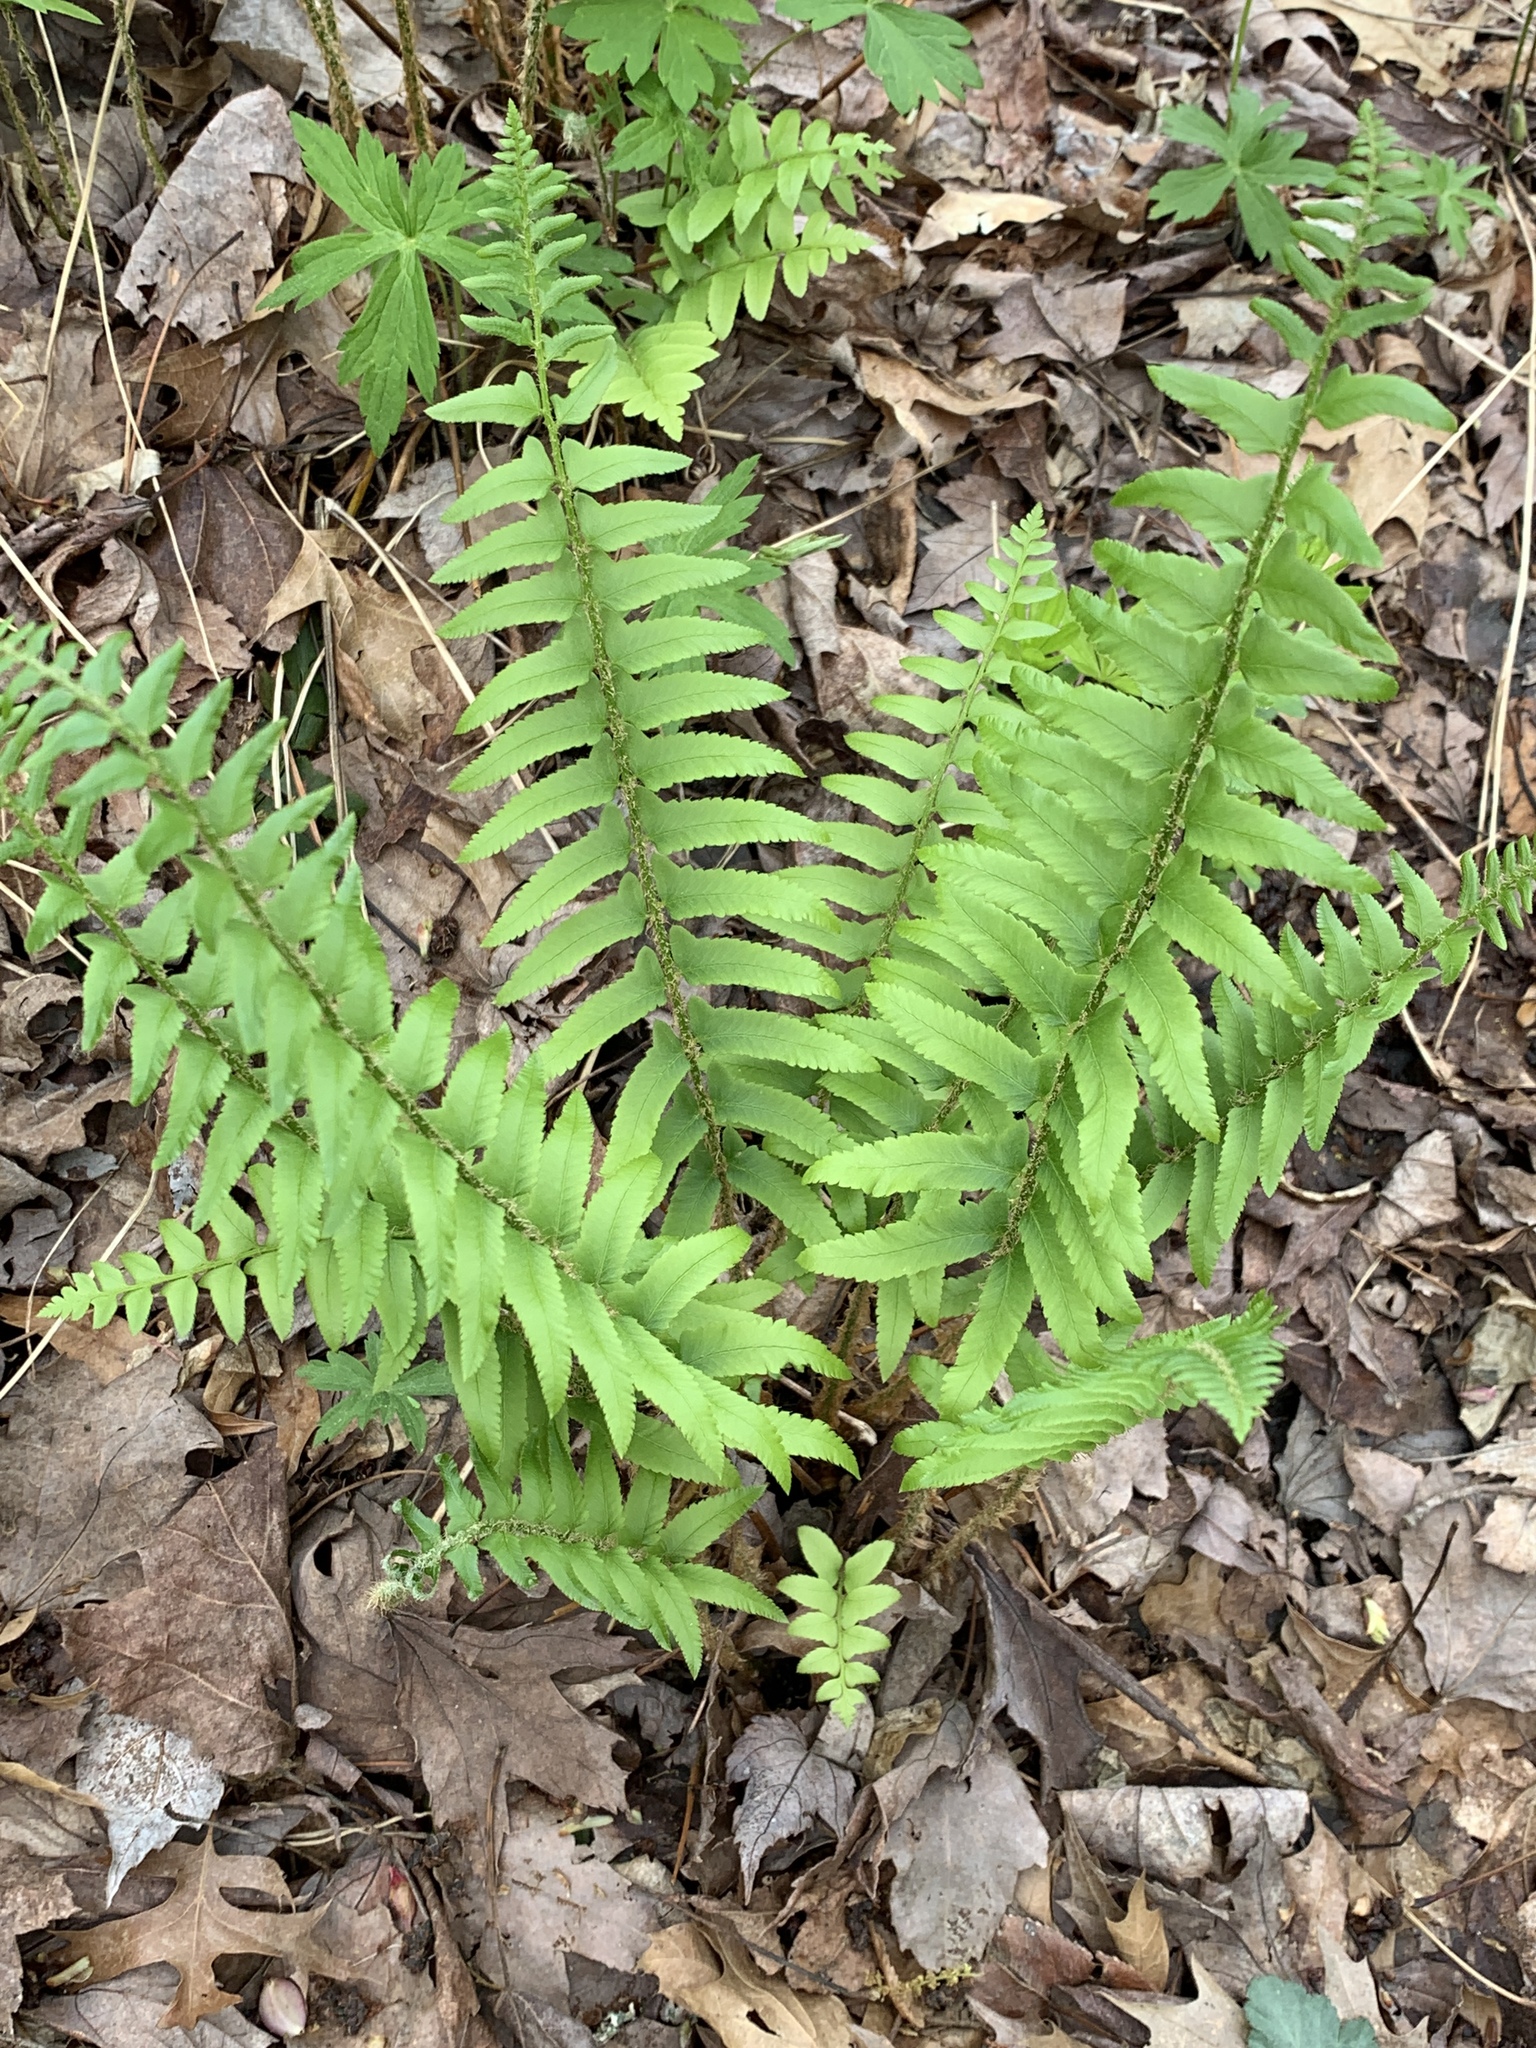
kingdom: Plantae
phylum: Tracheophyta
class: Polypodiopsida
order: Polypodiales
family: Dryopteridaceae
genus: Polystichum
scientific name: Polystichum acrostichoides
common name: Christmas fern
